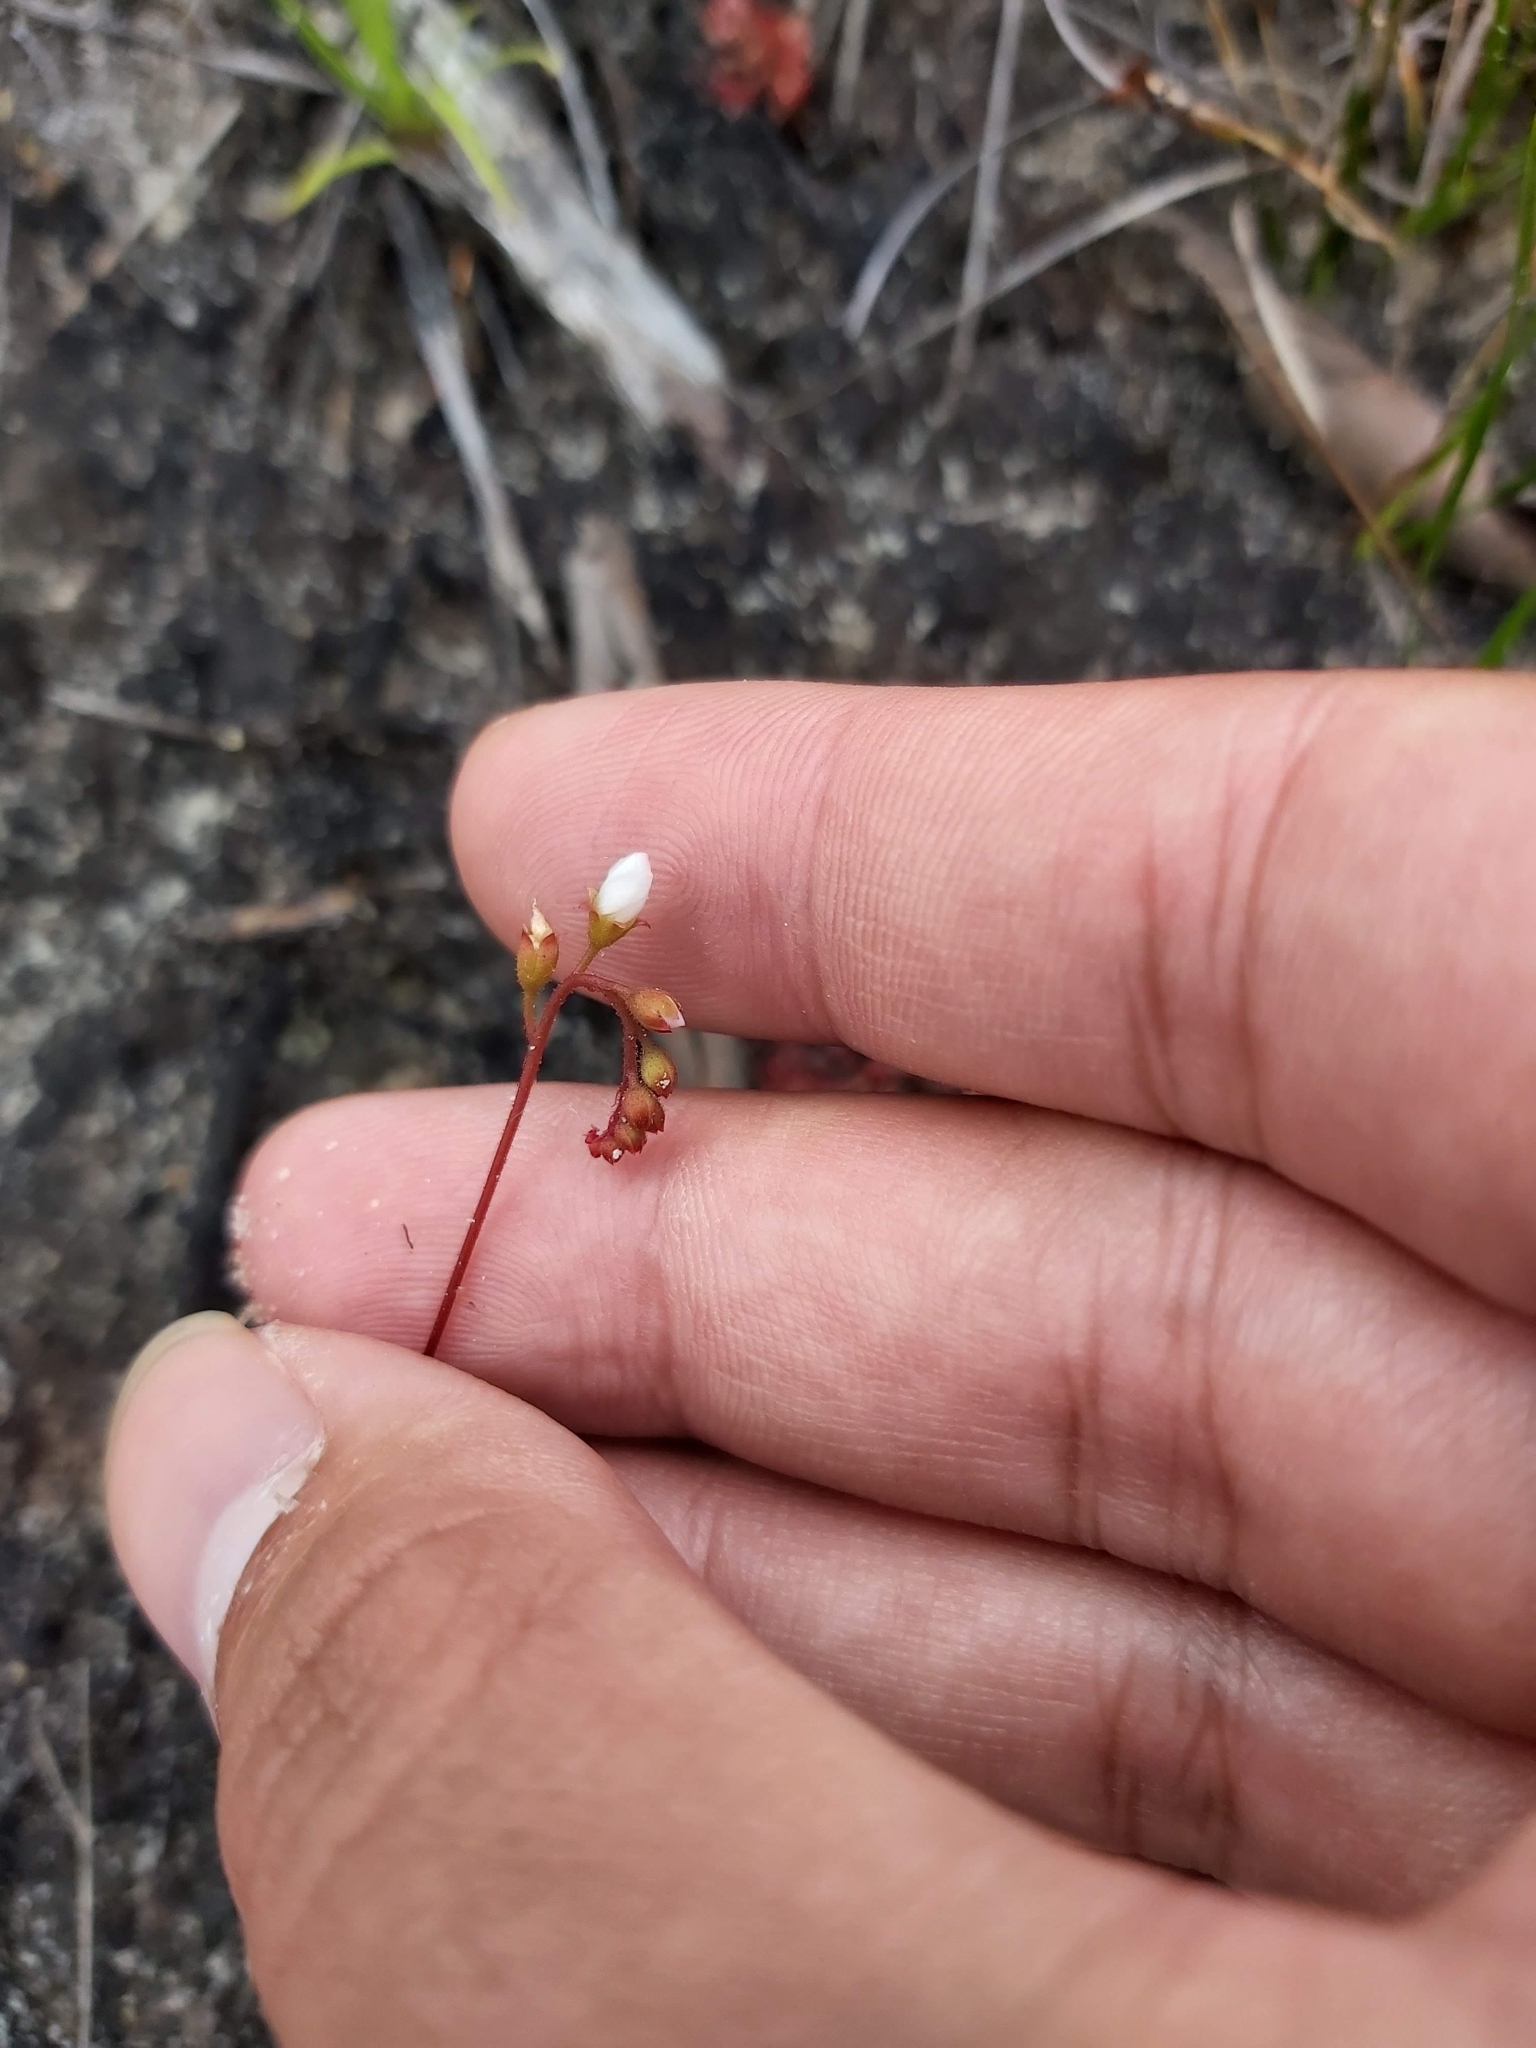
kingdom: Plantae
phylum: Tracheophyta
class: Magnoliopsida
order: Caryophyllales
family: Droseraceae
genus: Drosera
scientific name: Drosera spatulata
